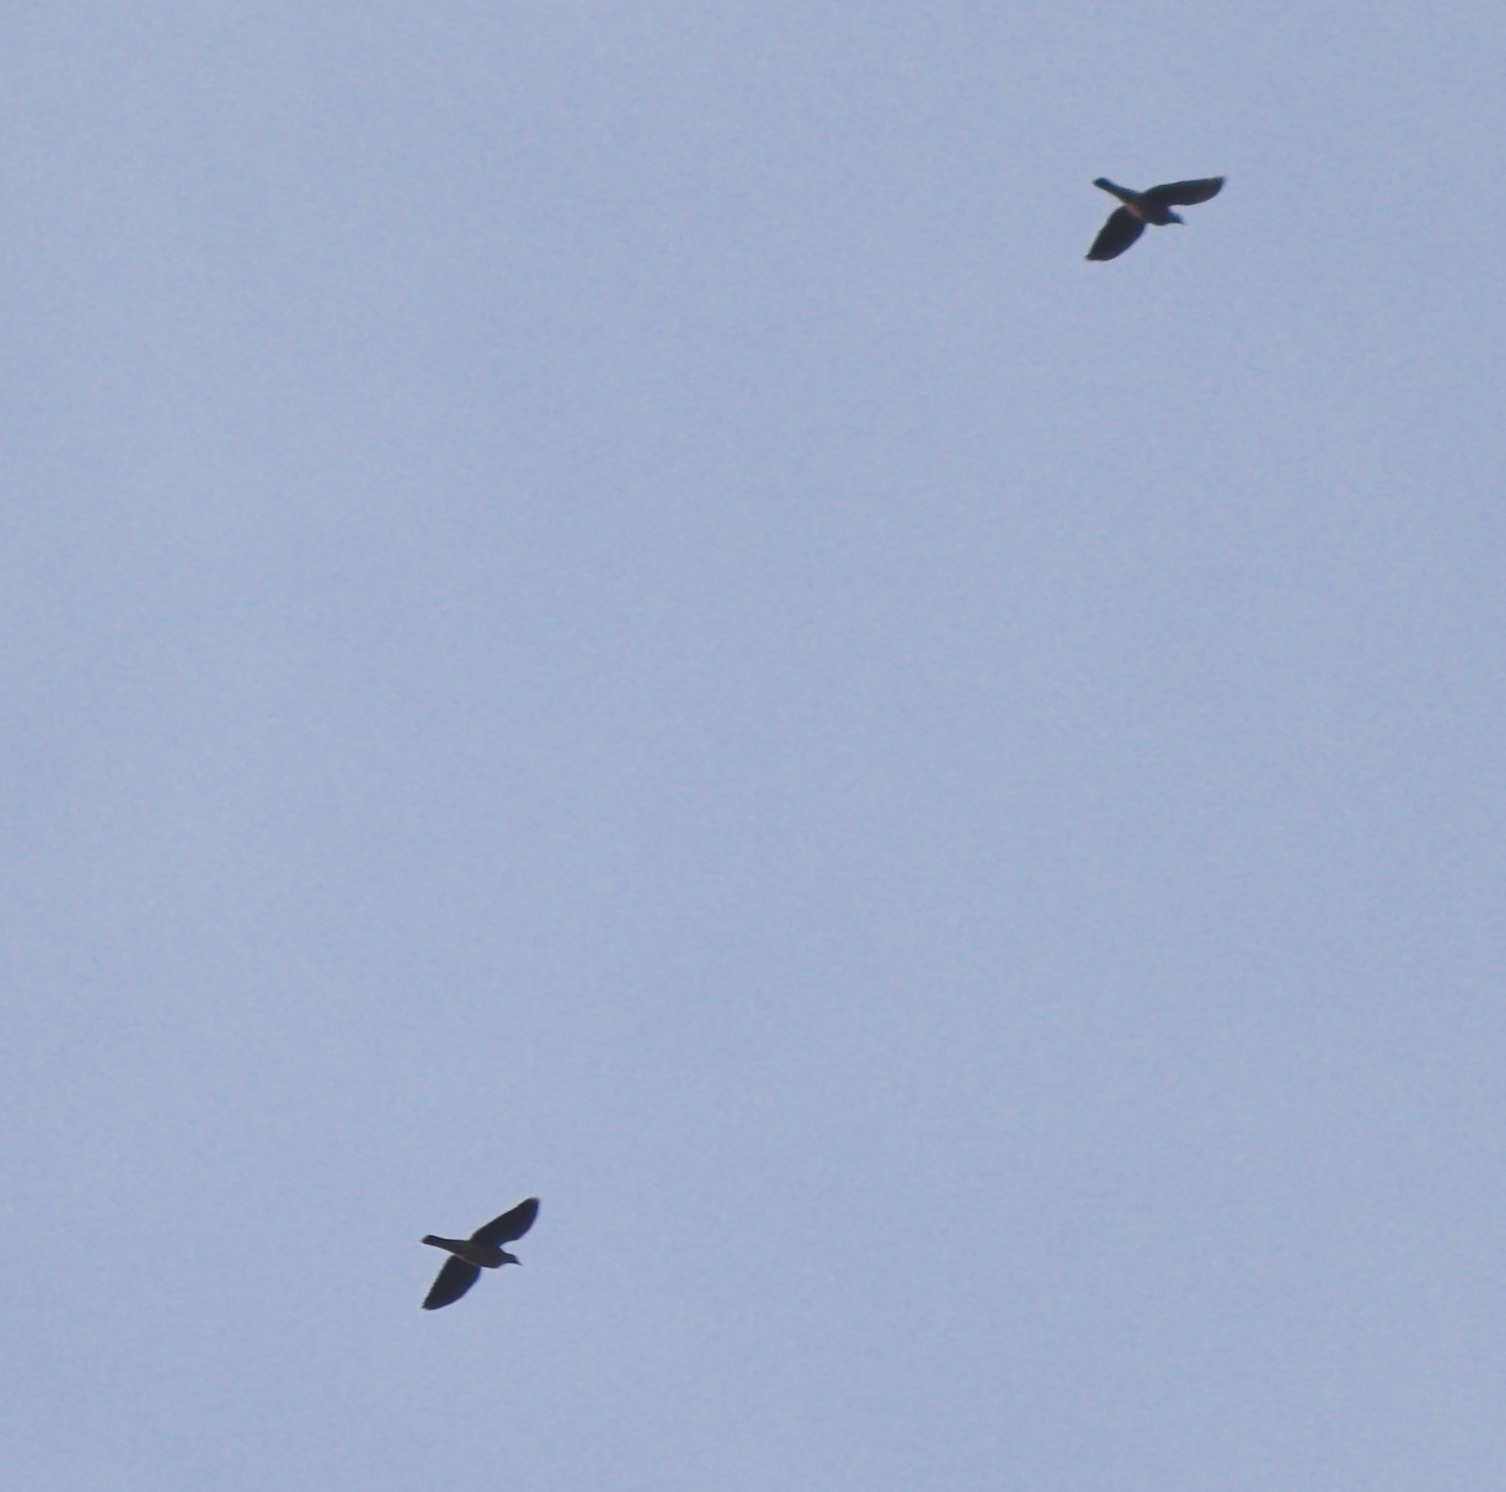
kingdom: Animalia
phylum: Chordata
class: Aves
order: Columbiformes
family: Columbidae
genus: Columba
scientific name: Columba palumbus
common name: Common wood pigeon
